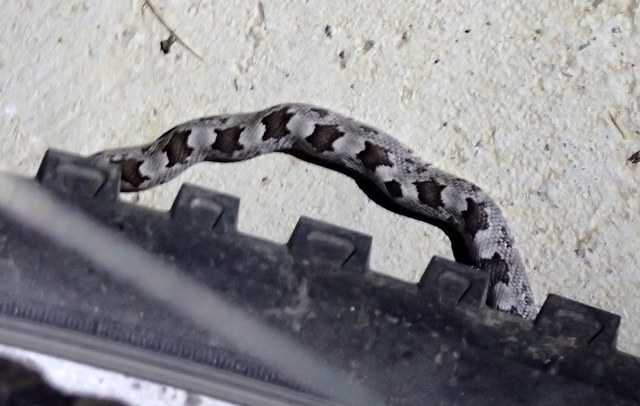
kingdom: Animalia
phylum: Chordata
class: Squamata
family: Colubridae
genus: Pantherophis
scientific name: Pantherophis spiloides
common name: Gray rat snake
